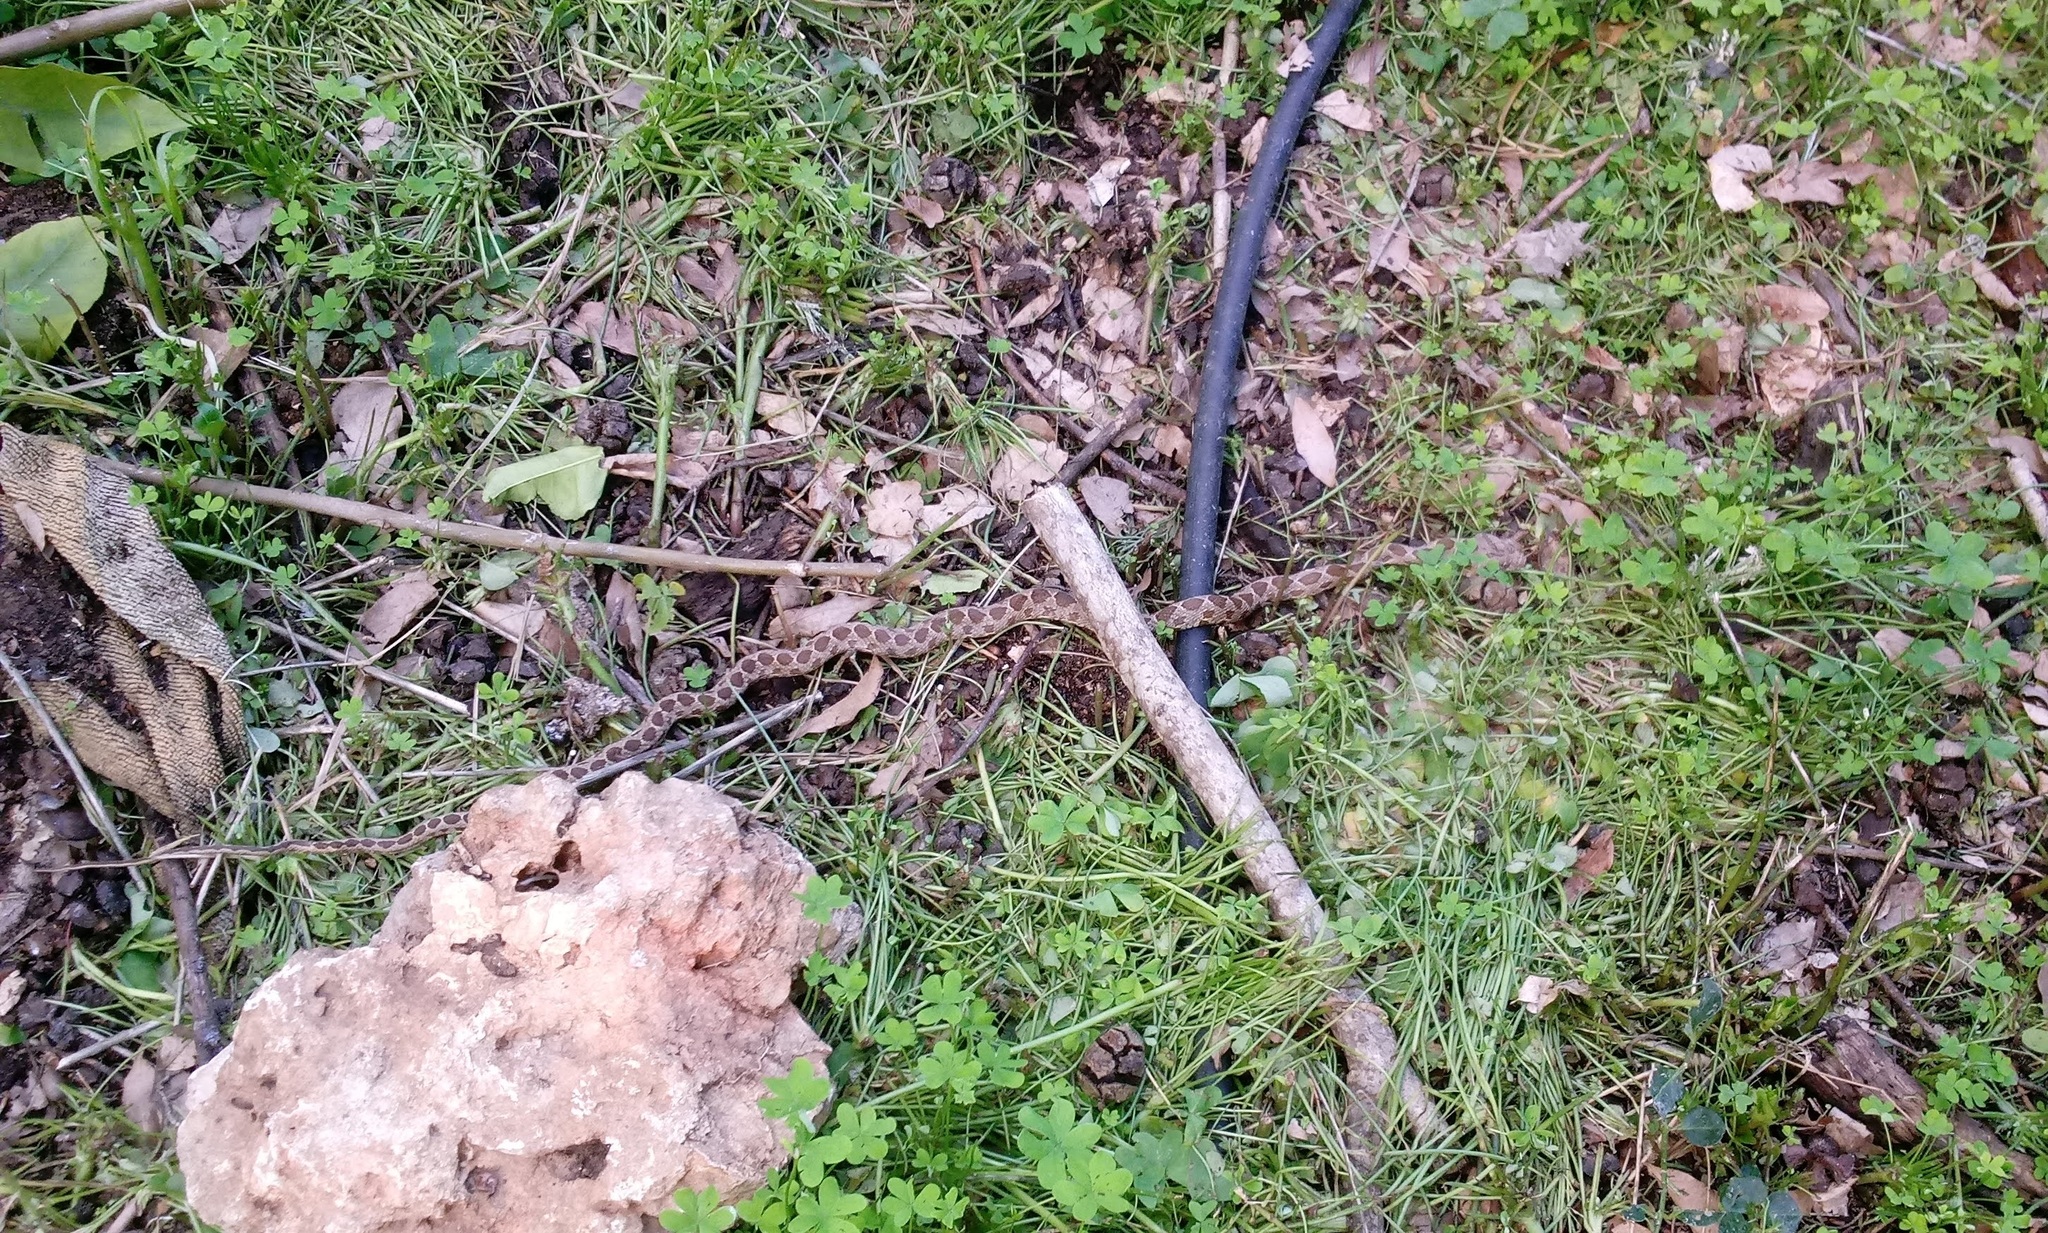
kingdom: Animalia
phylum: Chordata
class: Squamata
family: Colubridae
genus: Hemorrhois
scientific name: Hemorrhois nummifer
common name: Asian racer
